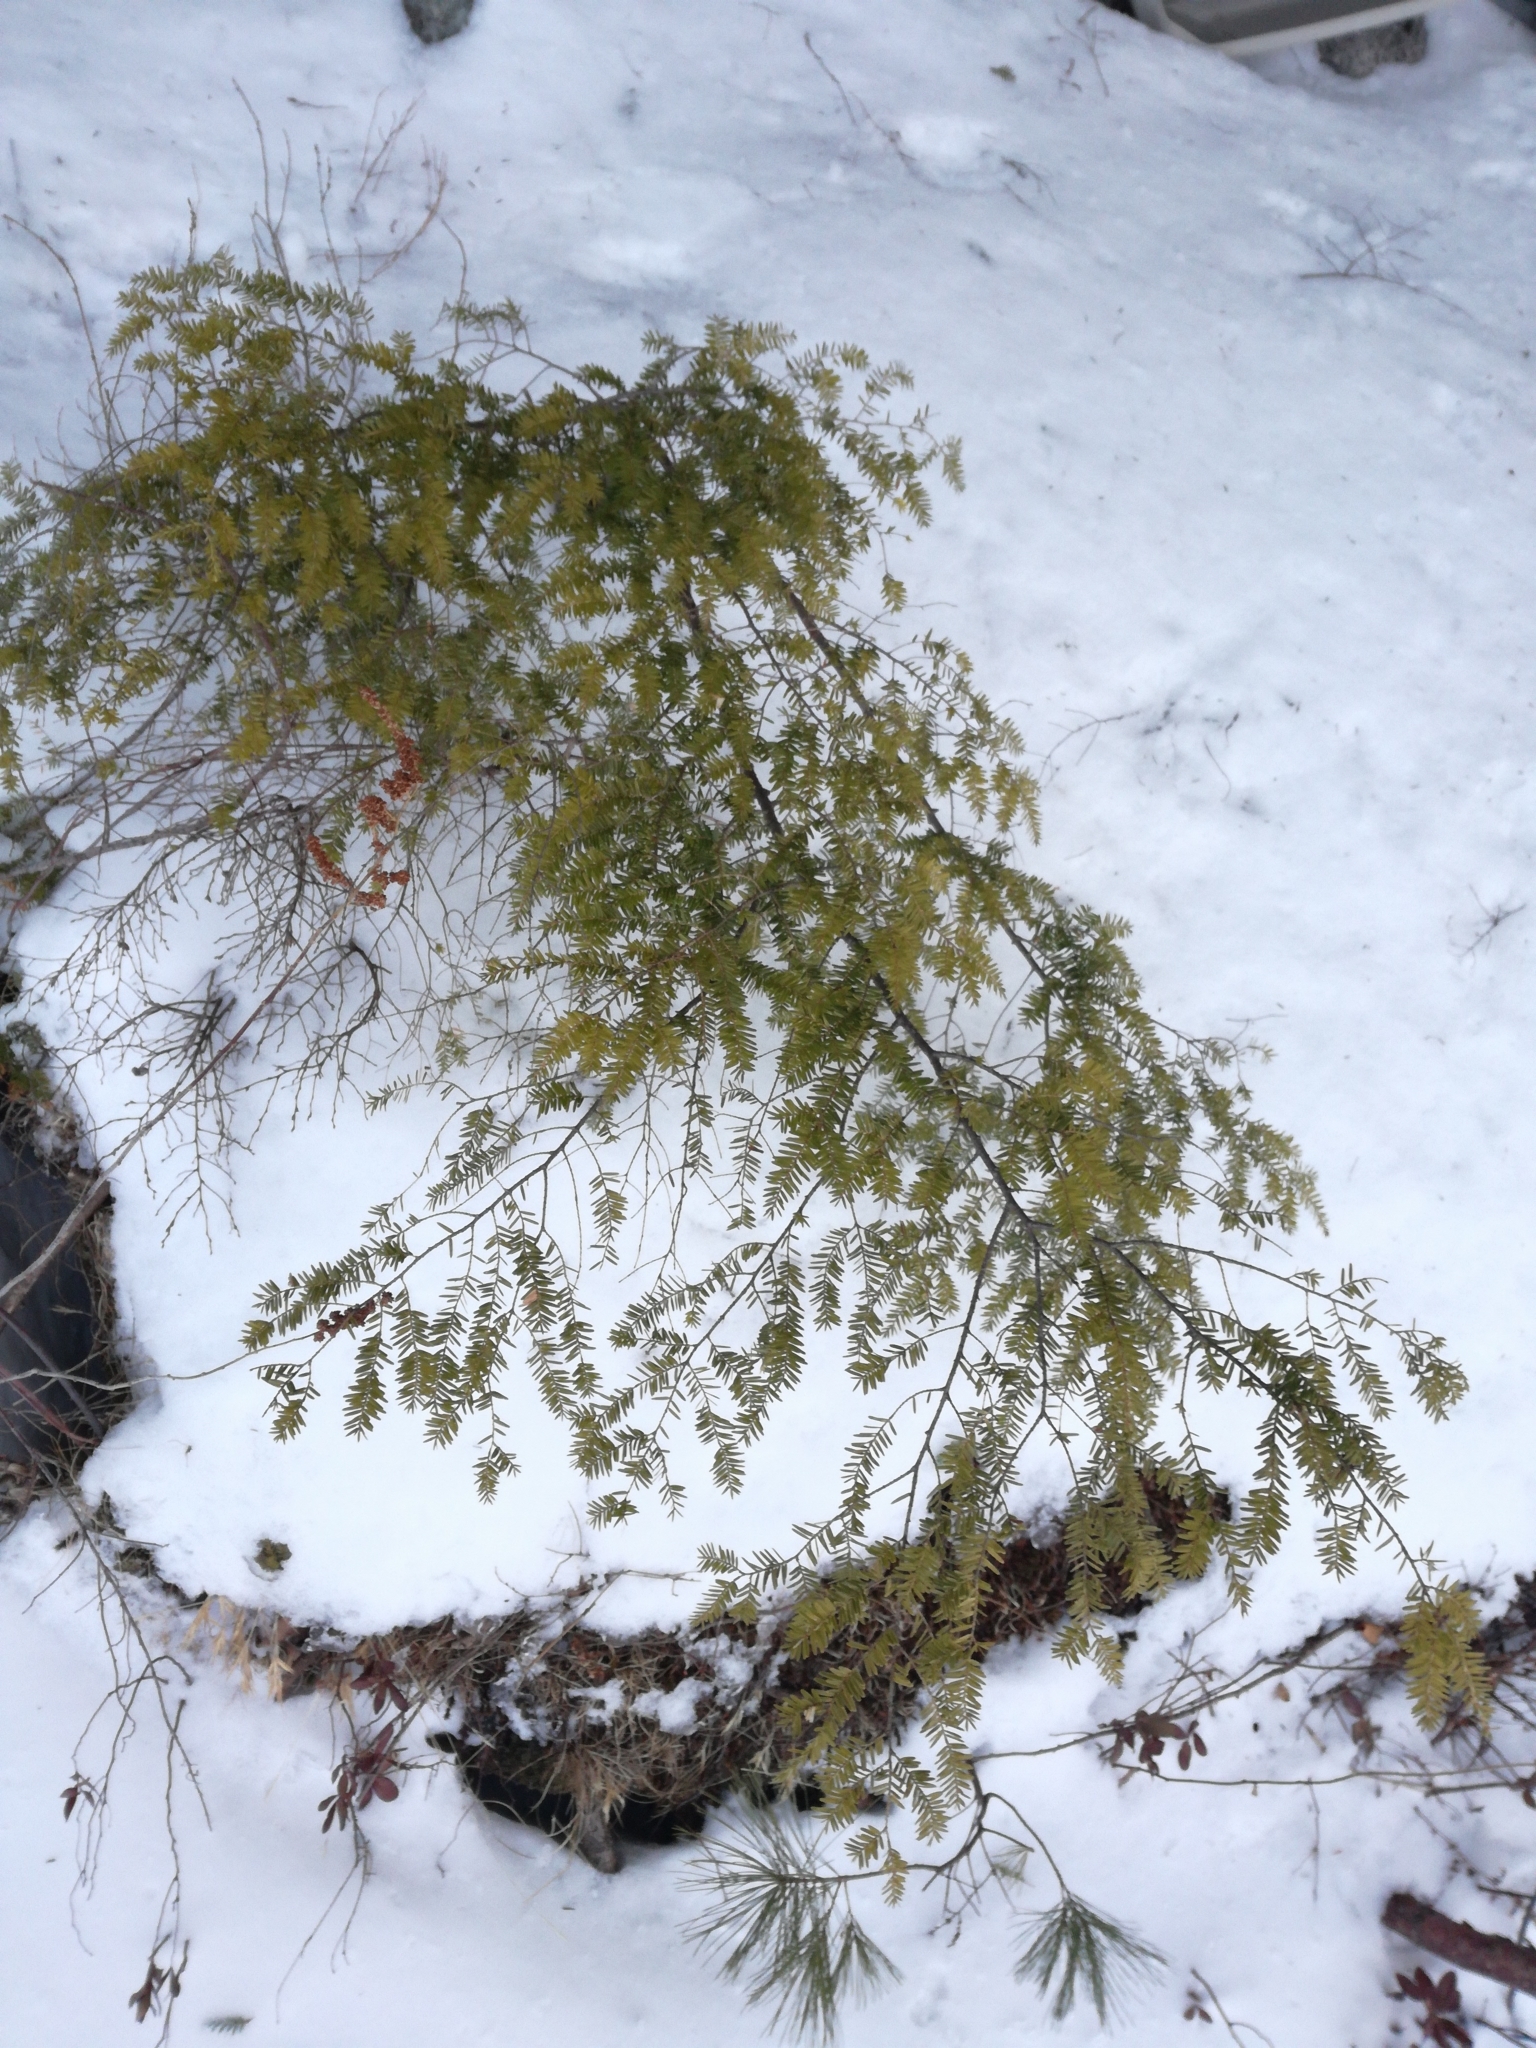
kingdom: Plantae
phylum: Tracheophyta
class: Pinopsida
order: Pinales
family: Pinaceae
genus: Tsuga
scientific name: Tsuga canadensis
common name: Eastern hemlock
